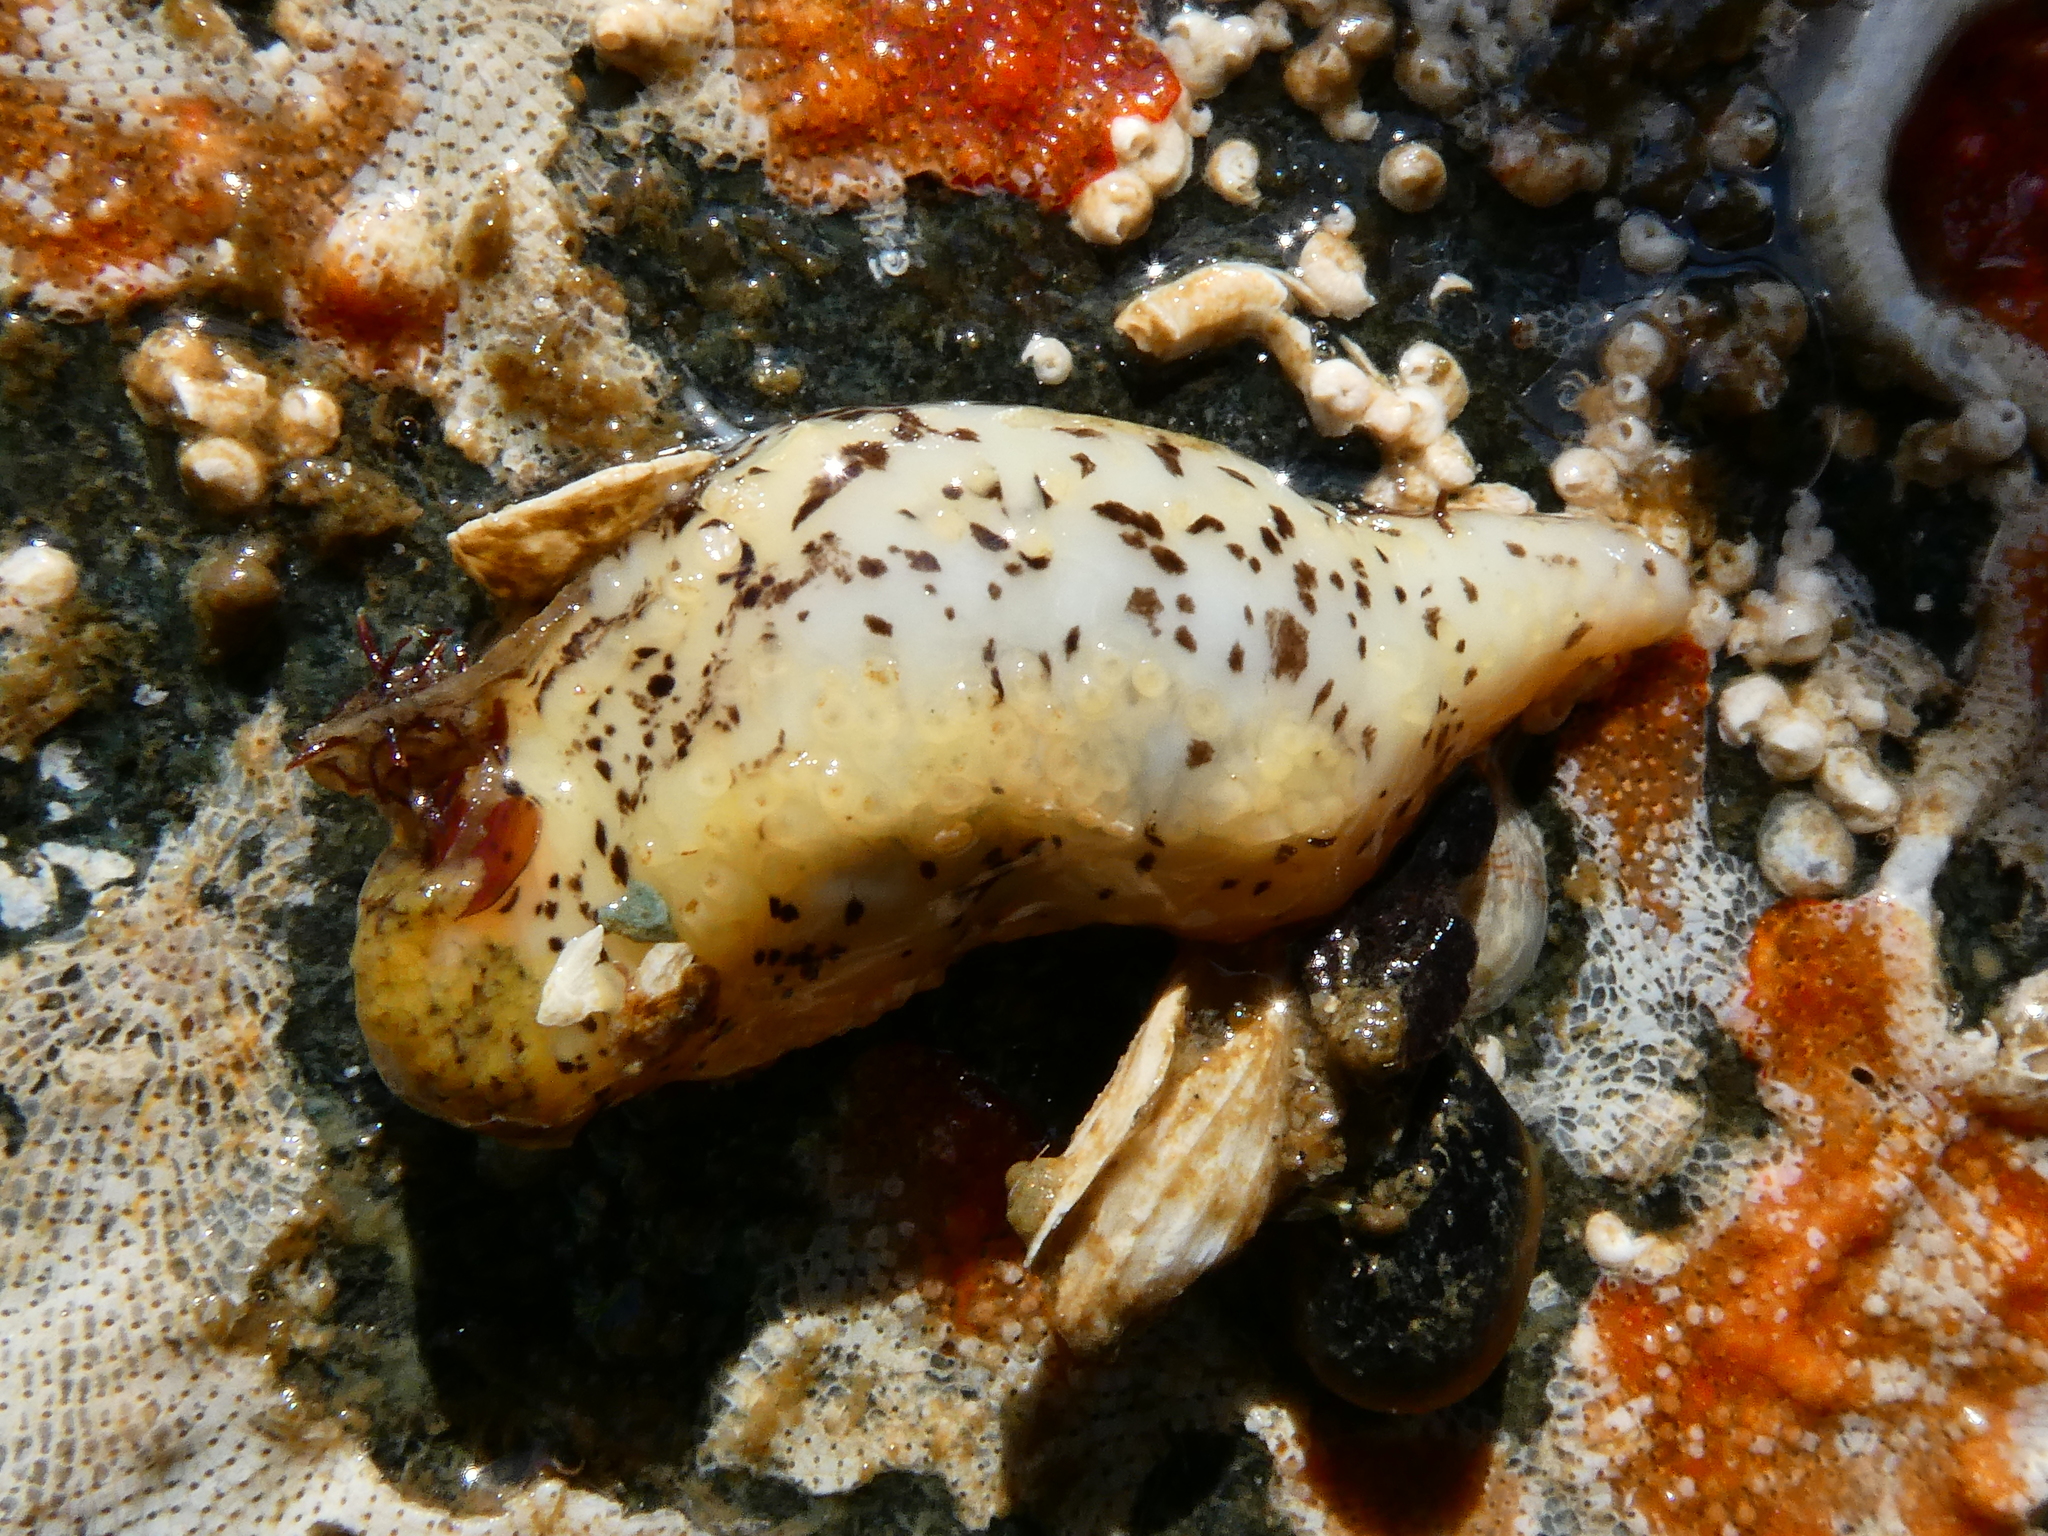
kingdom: Animalia
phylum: Echinodermata
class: Holothuroidea
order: Dendrochirotida
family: Cucumariidae
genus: Cucumaria
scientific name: Cucumaria piperata
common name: Peppered sea cucumber
